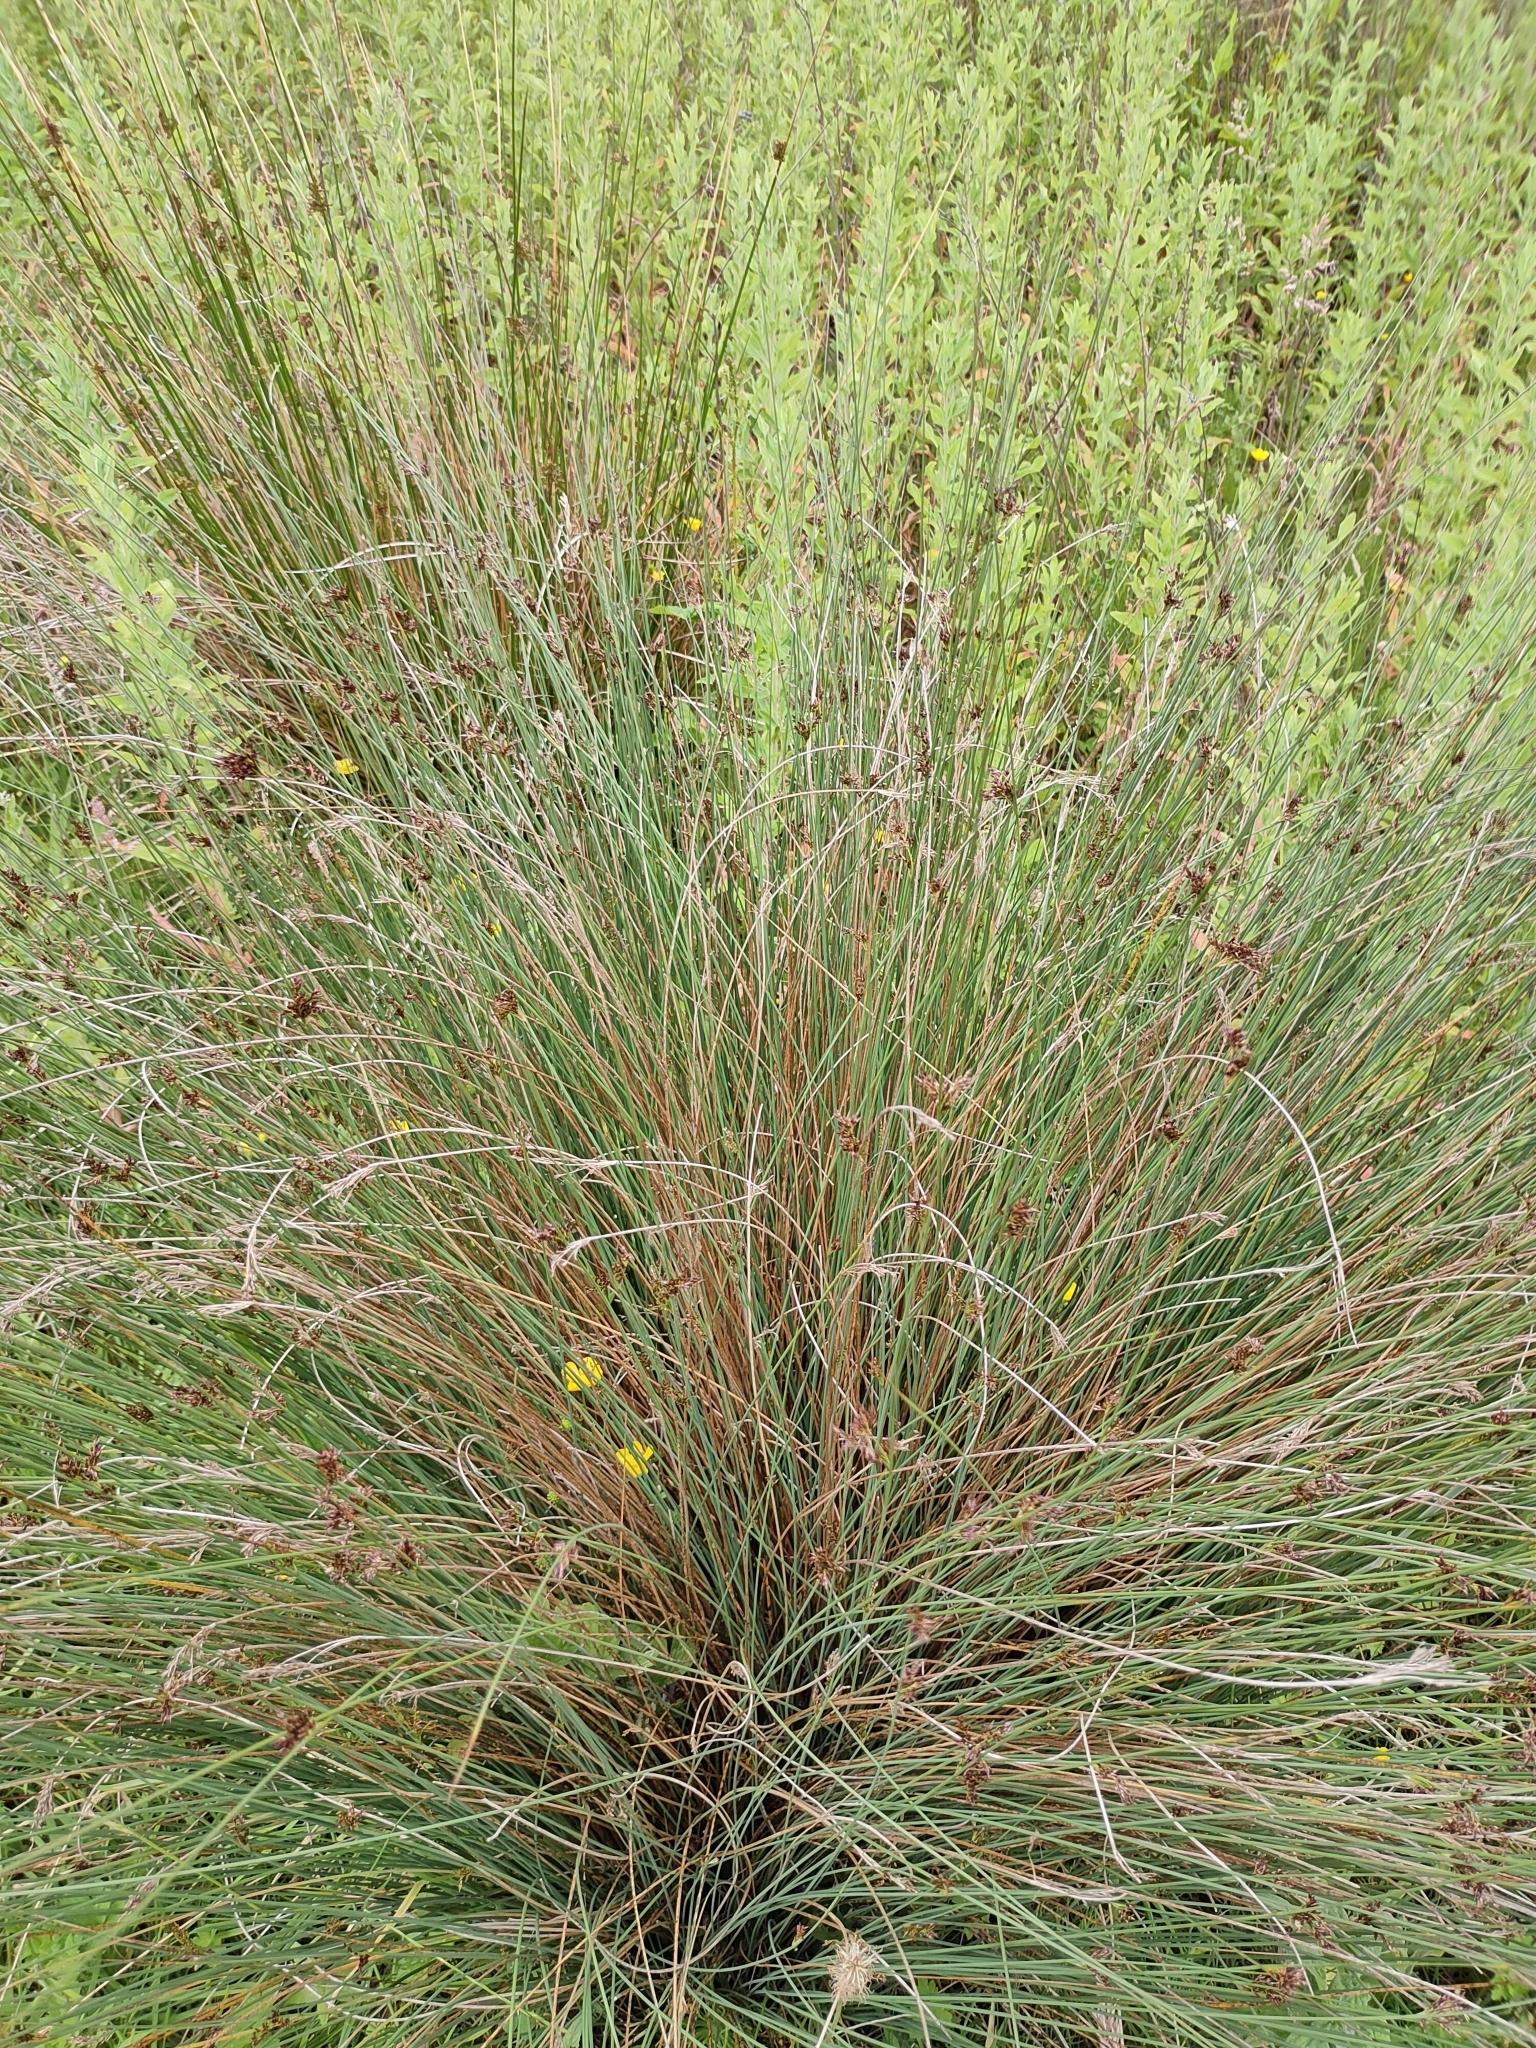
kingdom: Plantae
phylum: Tracheophyta
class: Liliopsida
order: Poales
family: Juncaceae
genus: Juncus
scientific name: Juncus inflexus
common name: Hard rush
